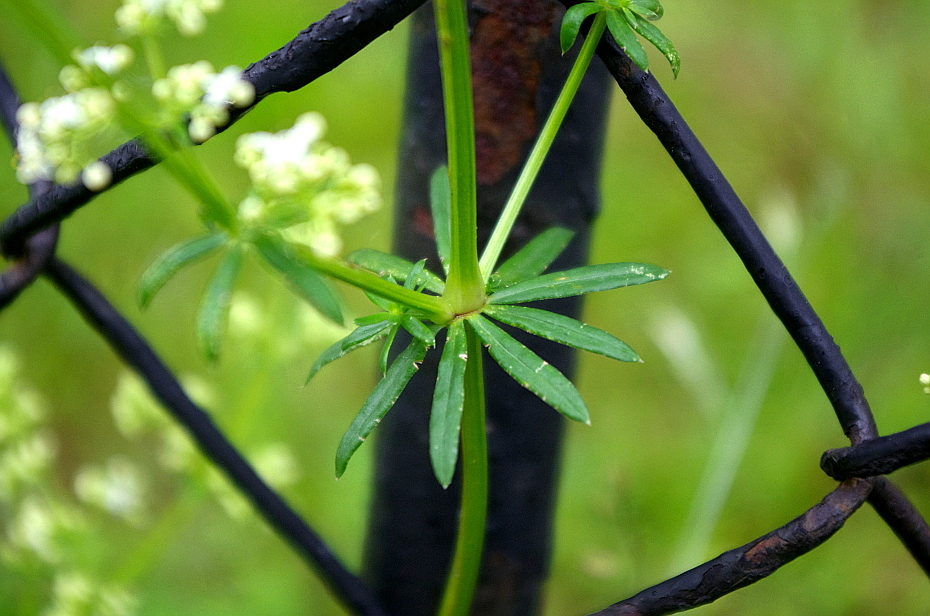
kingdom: Plantae
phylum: Tracheophyta
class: Magnoliopsida
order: Gentianales
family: Rubiaceae
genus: Galium
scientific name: Galium mollugo
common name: Hedge bedstraw
